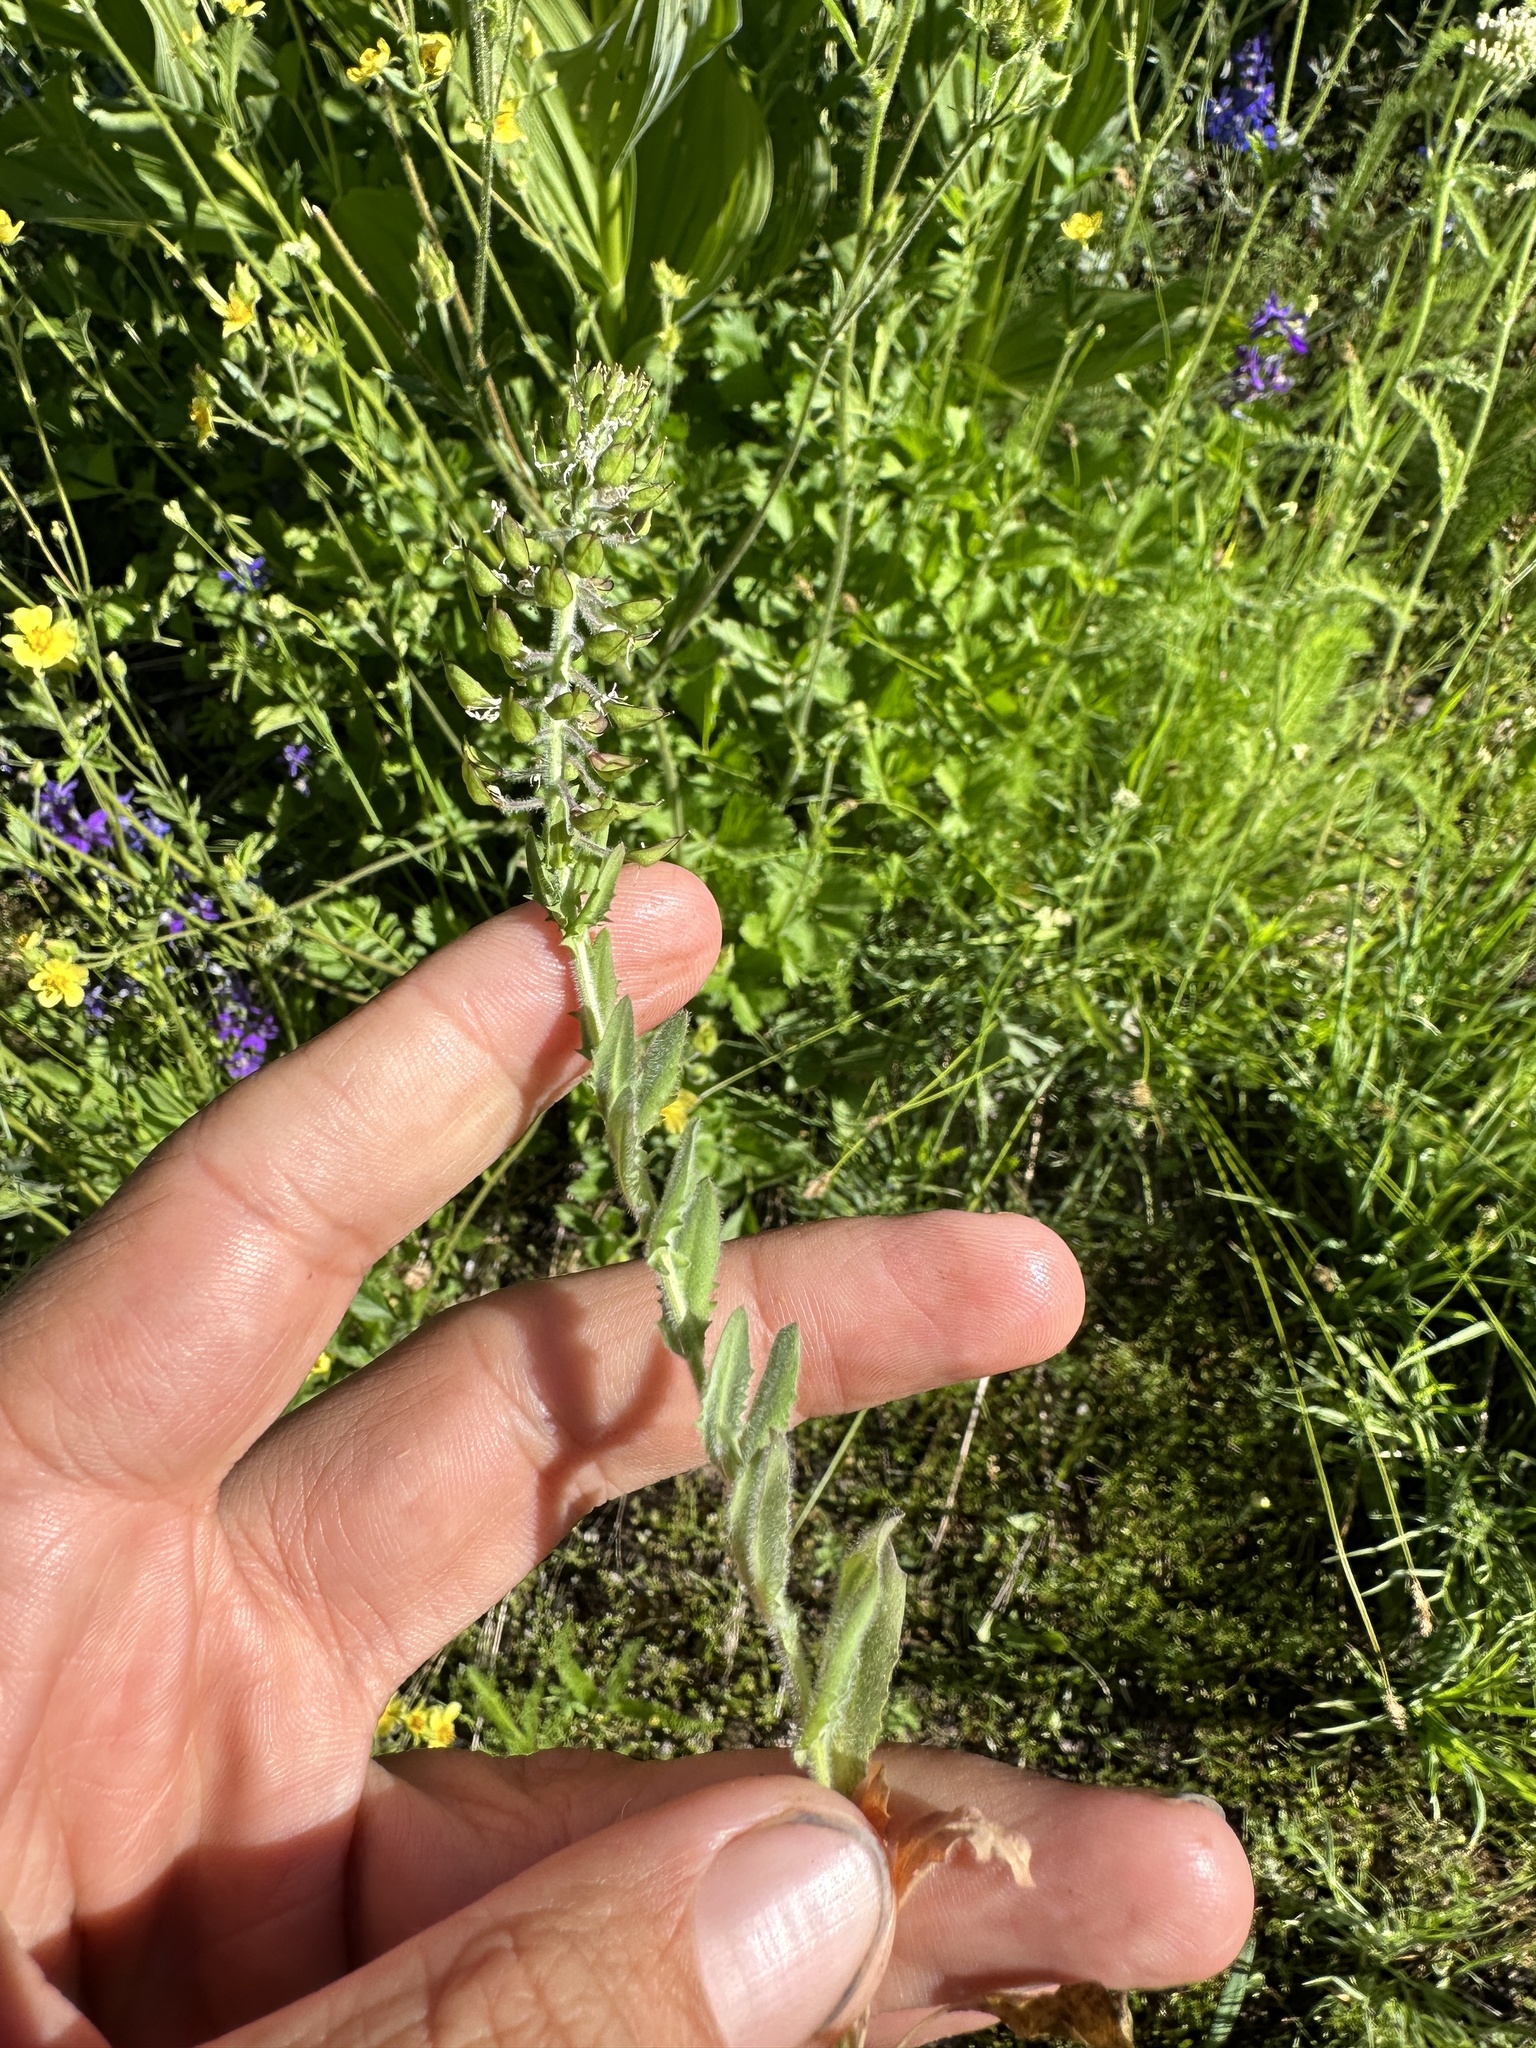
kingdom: Plantae
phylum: Tracheophyta
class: Magnoliopsida
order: Brassicales
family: Brassicaceae
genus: Lepidium
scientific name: Lepidium heterophyllum
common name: Smith's pepperwort
